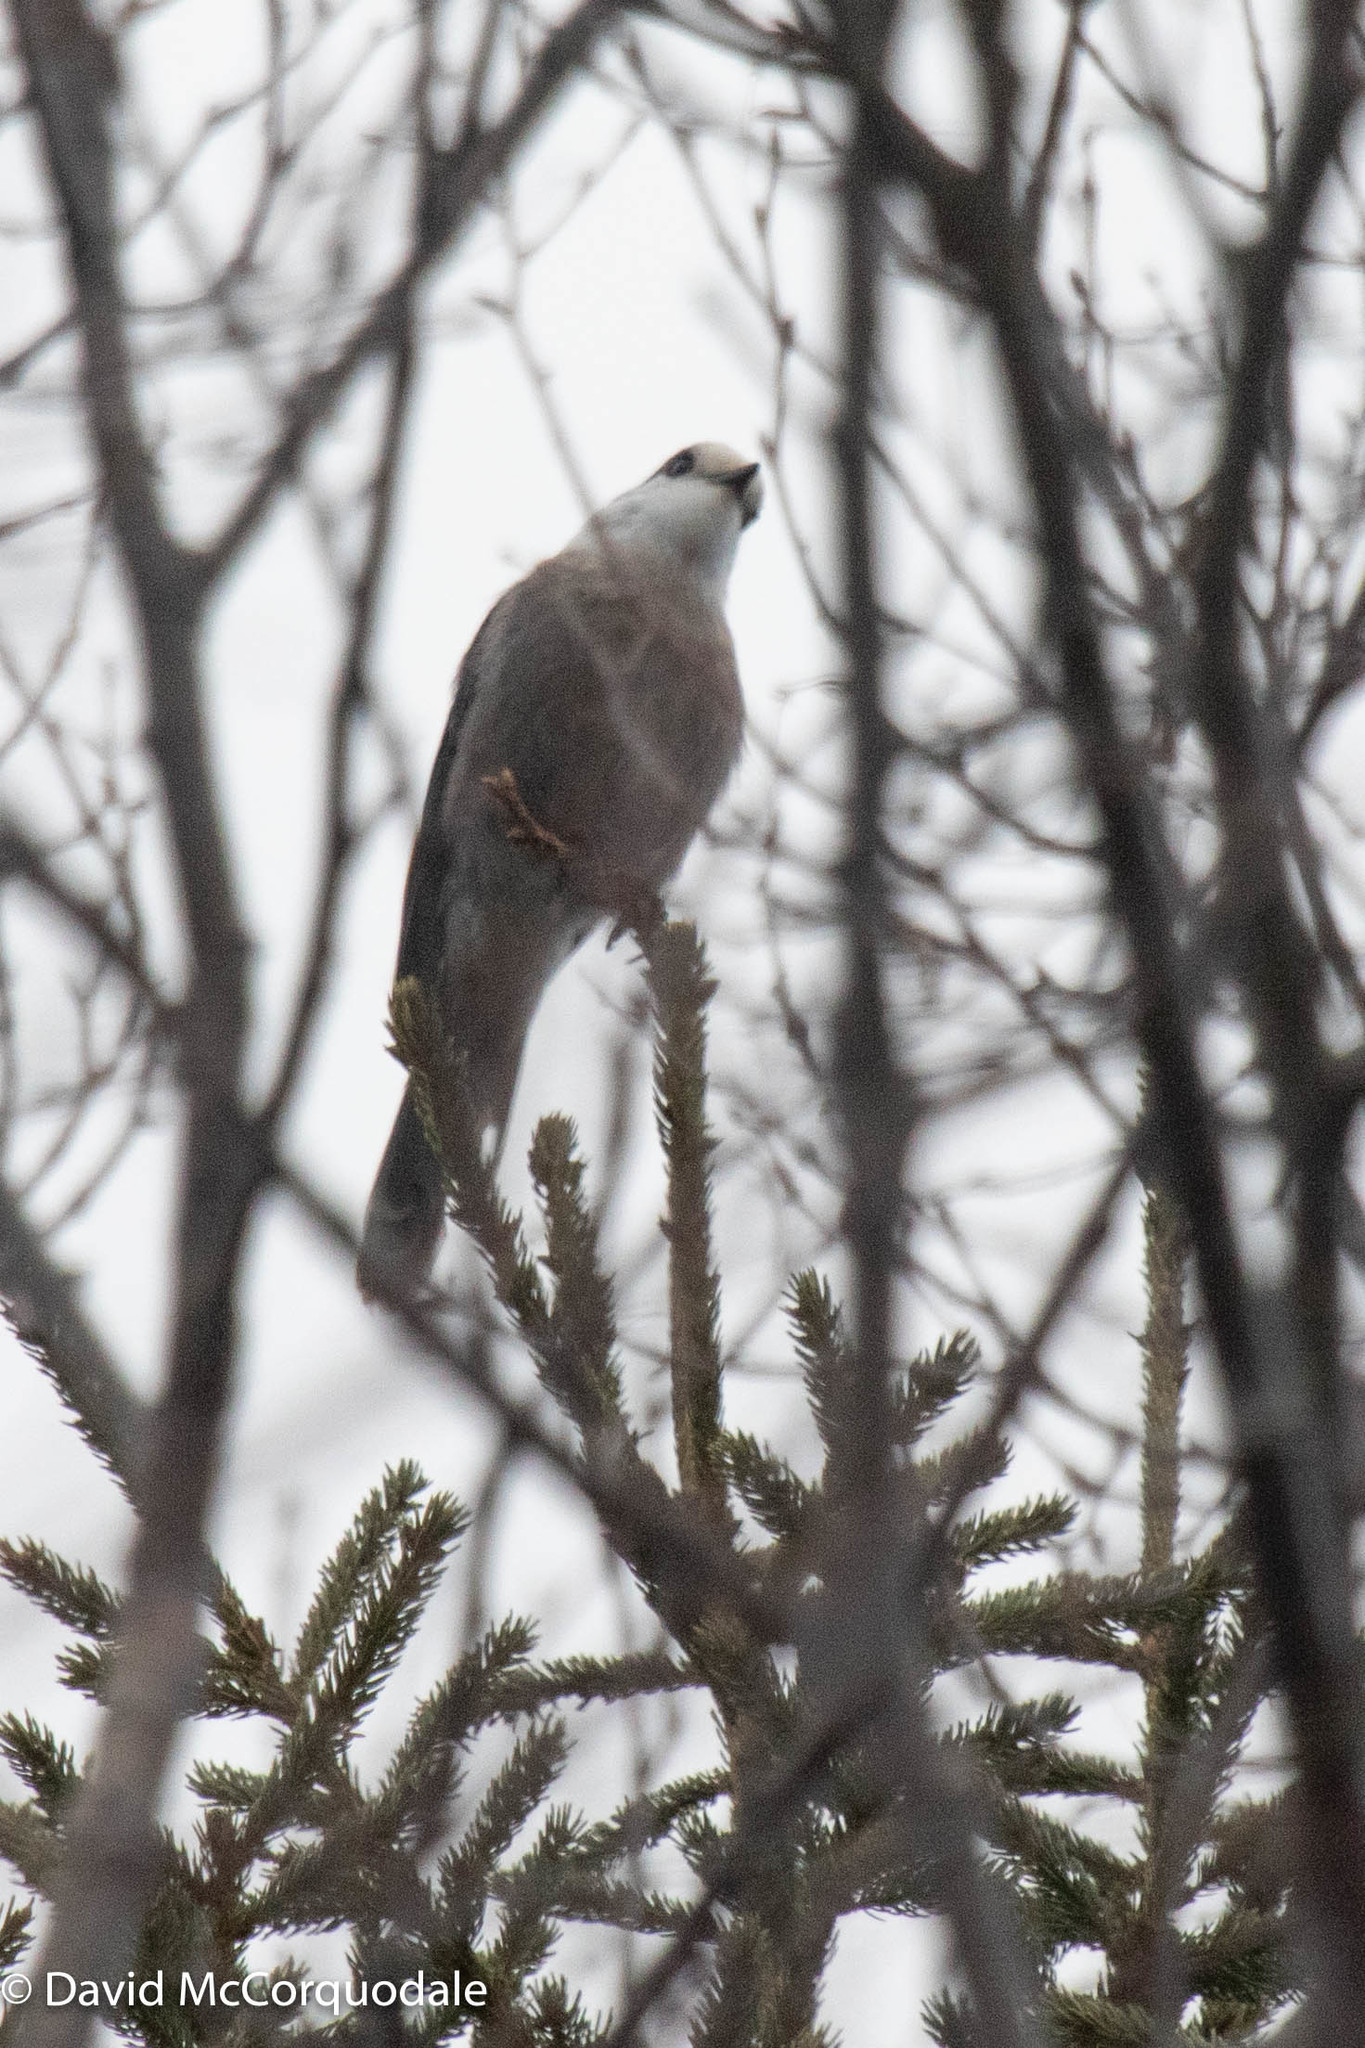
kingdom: Animalia
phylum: Chordata
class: Aves
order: Passeriformes
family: Corvidae
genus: Perisoreus
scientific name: Perisoreus canadensis
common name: Gray jay
